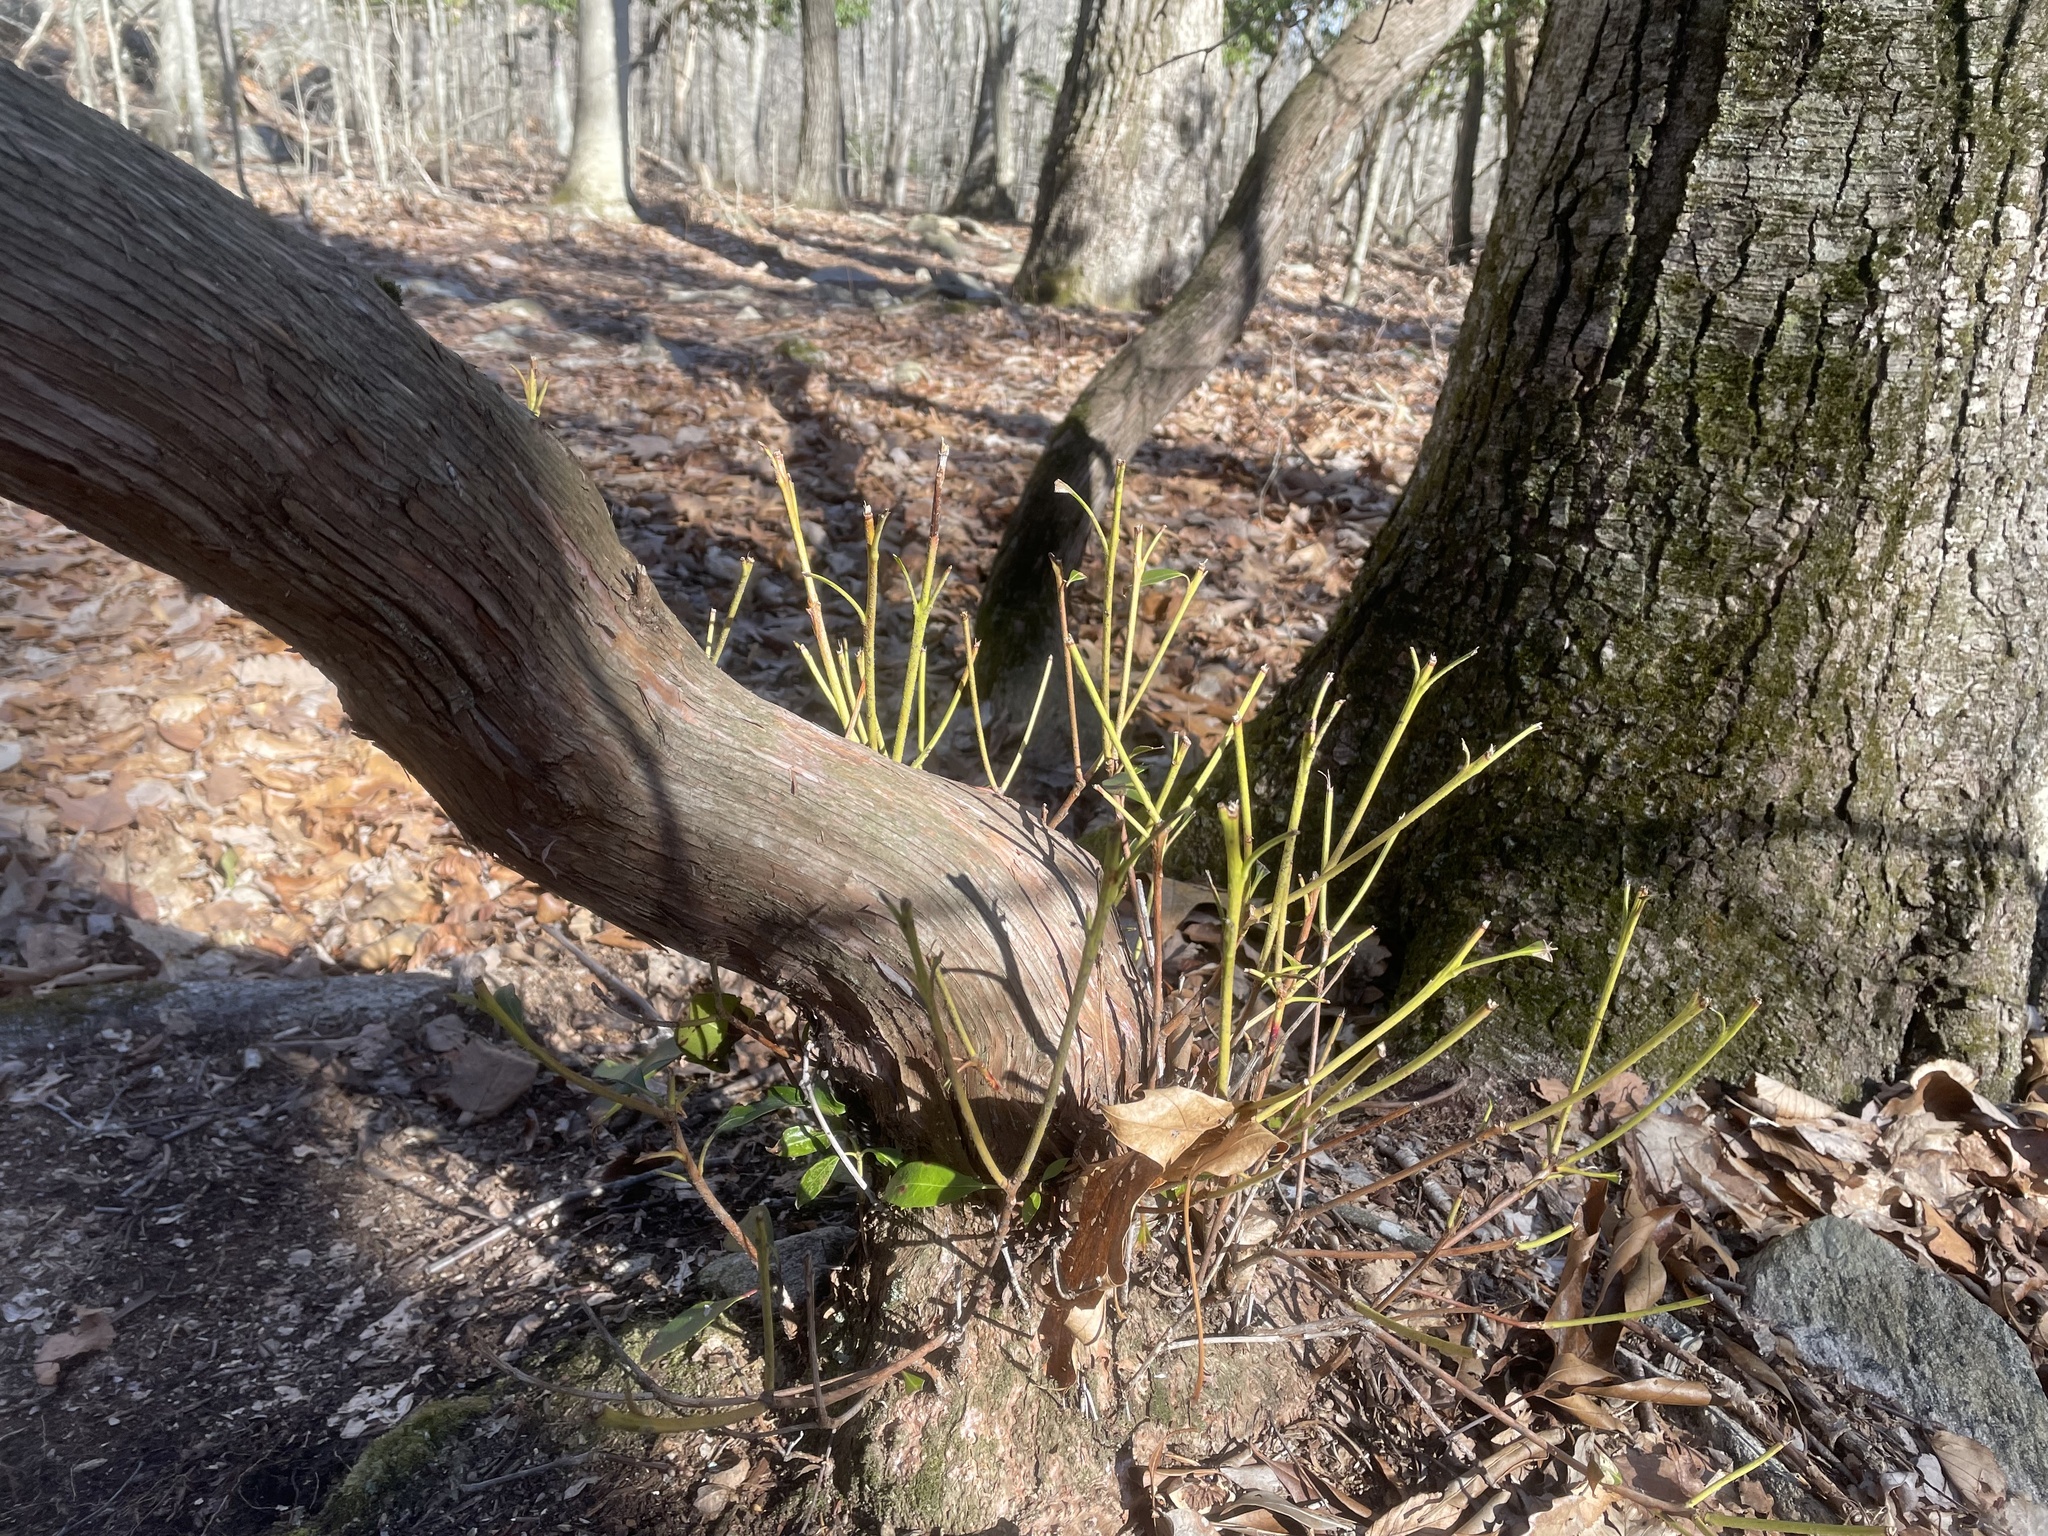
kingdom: Plantae
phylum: Tracheophyta
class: Magnoliopsida
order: Ericales
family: Ericaceae
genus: Kalmia
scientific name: Kalmia latifolia
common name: Mountain-laurel
